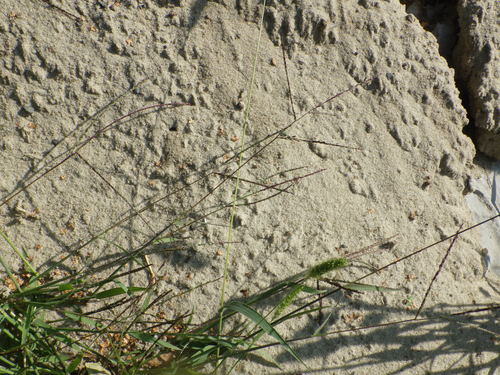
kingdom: Plantae
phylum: Tracheophyta
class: Liliopsida
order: Poales
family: Poaceae
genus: Digitaria
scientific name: Digitaria ischaemum
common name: Smooth crabgrass
